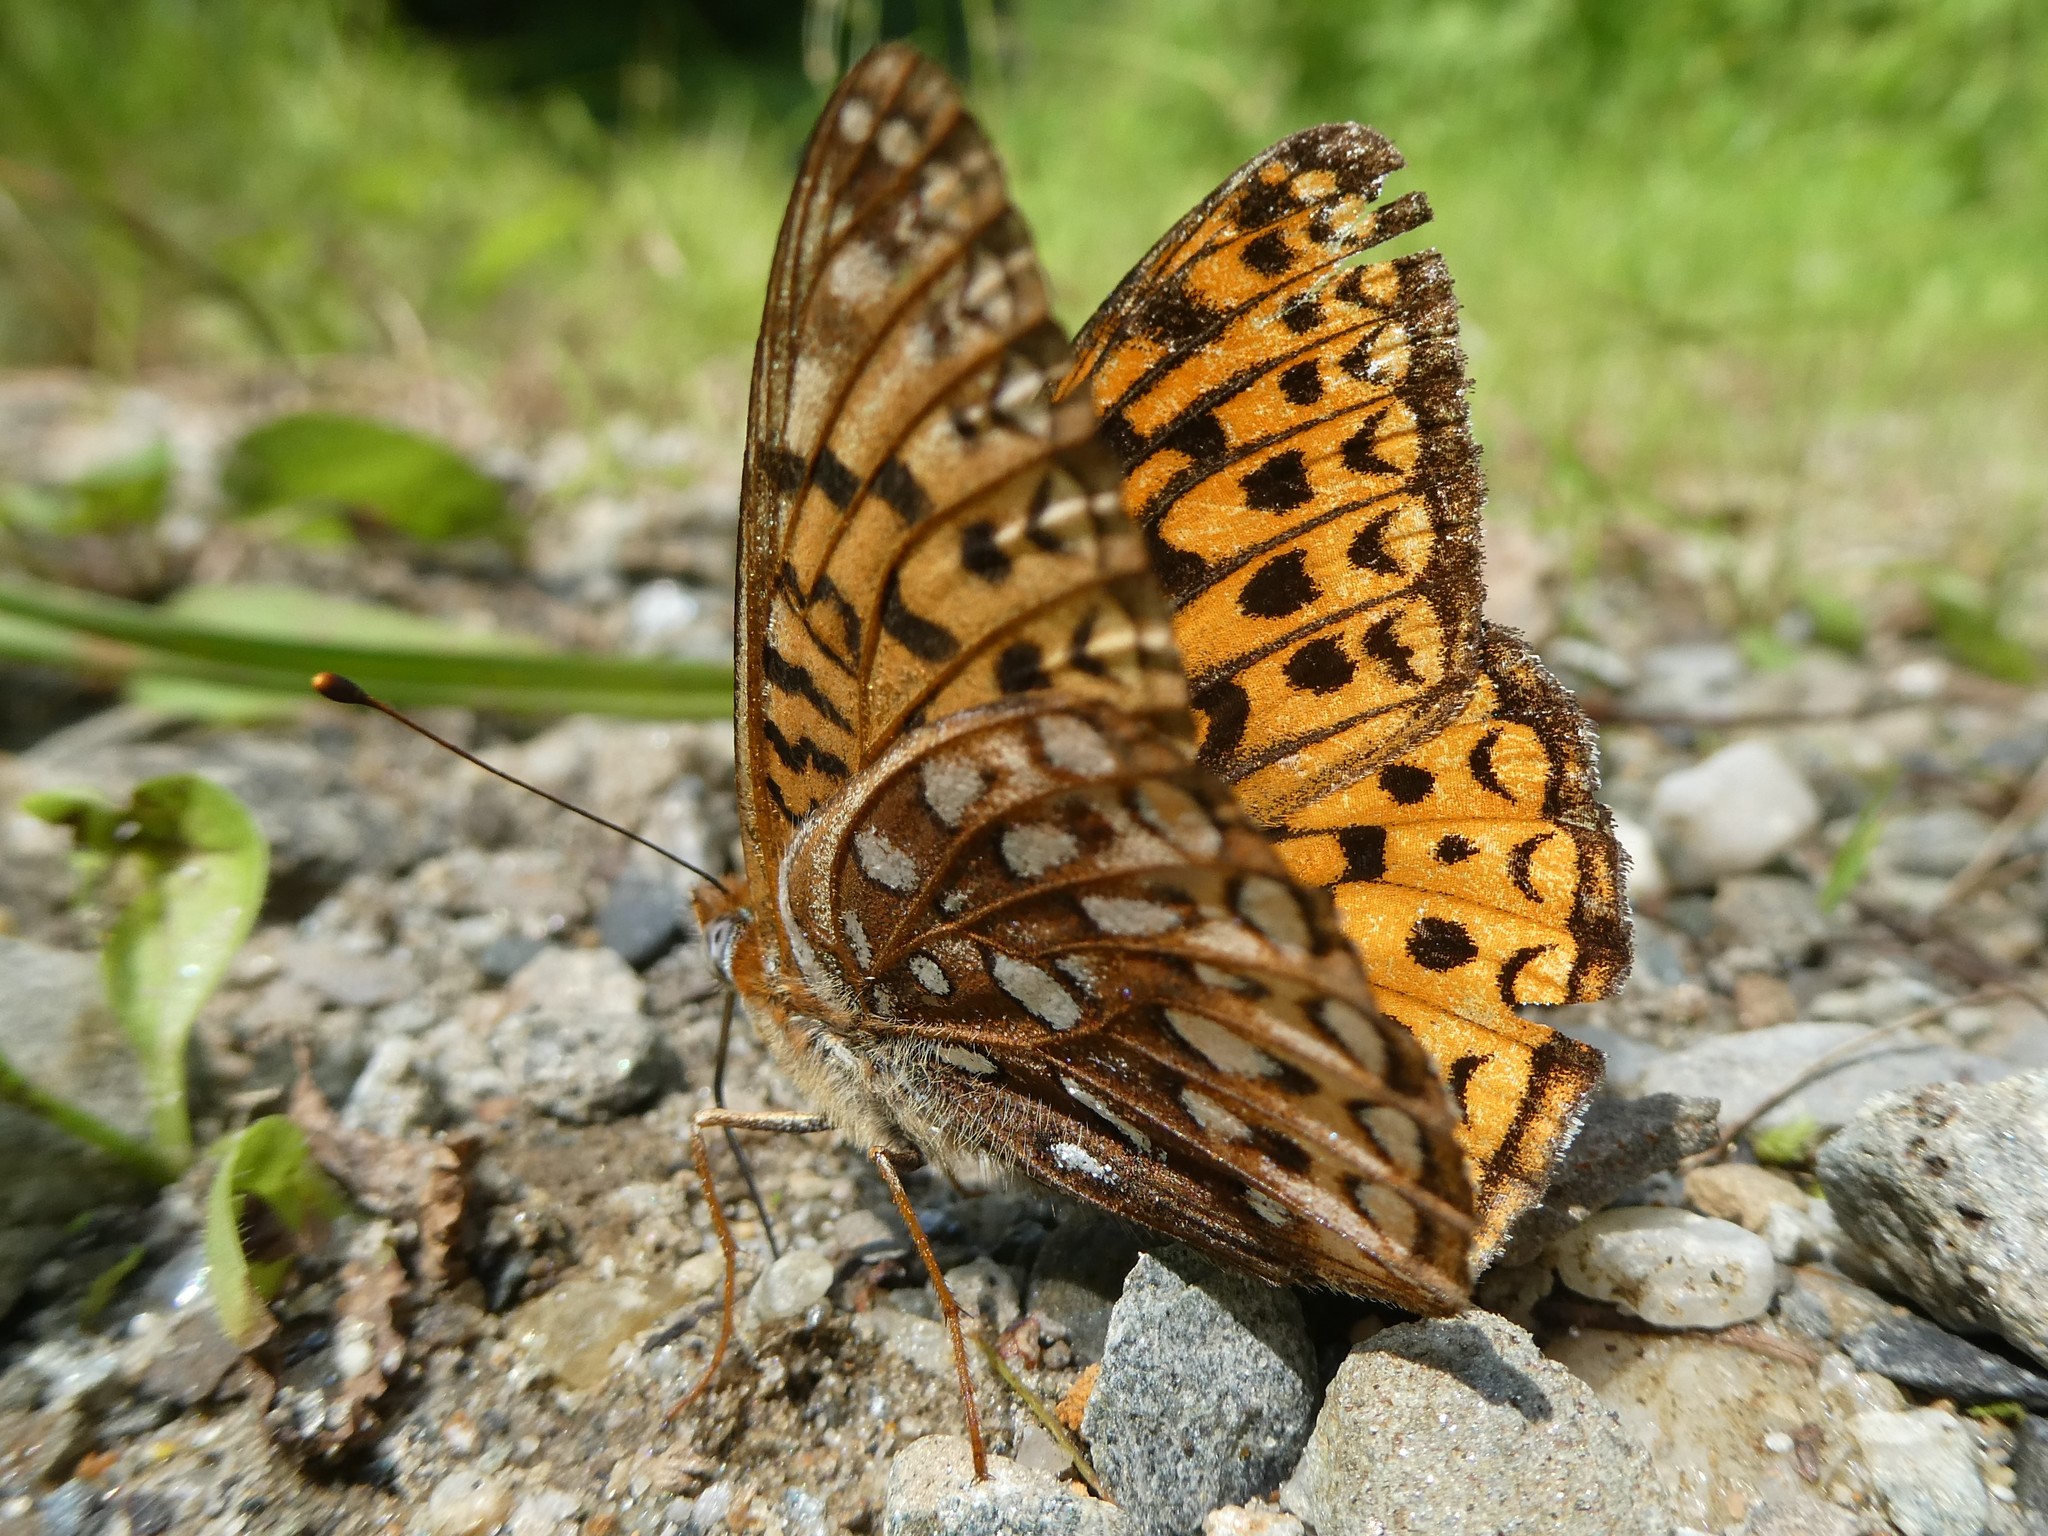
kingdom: Animalia
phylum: Arthropoda
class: Insecta
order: Lepidoptera
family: Nymphalidae
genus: Speyeria
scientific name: Speyeria atlantis
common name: Atlantis fritillary
